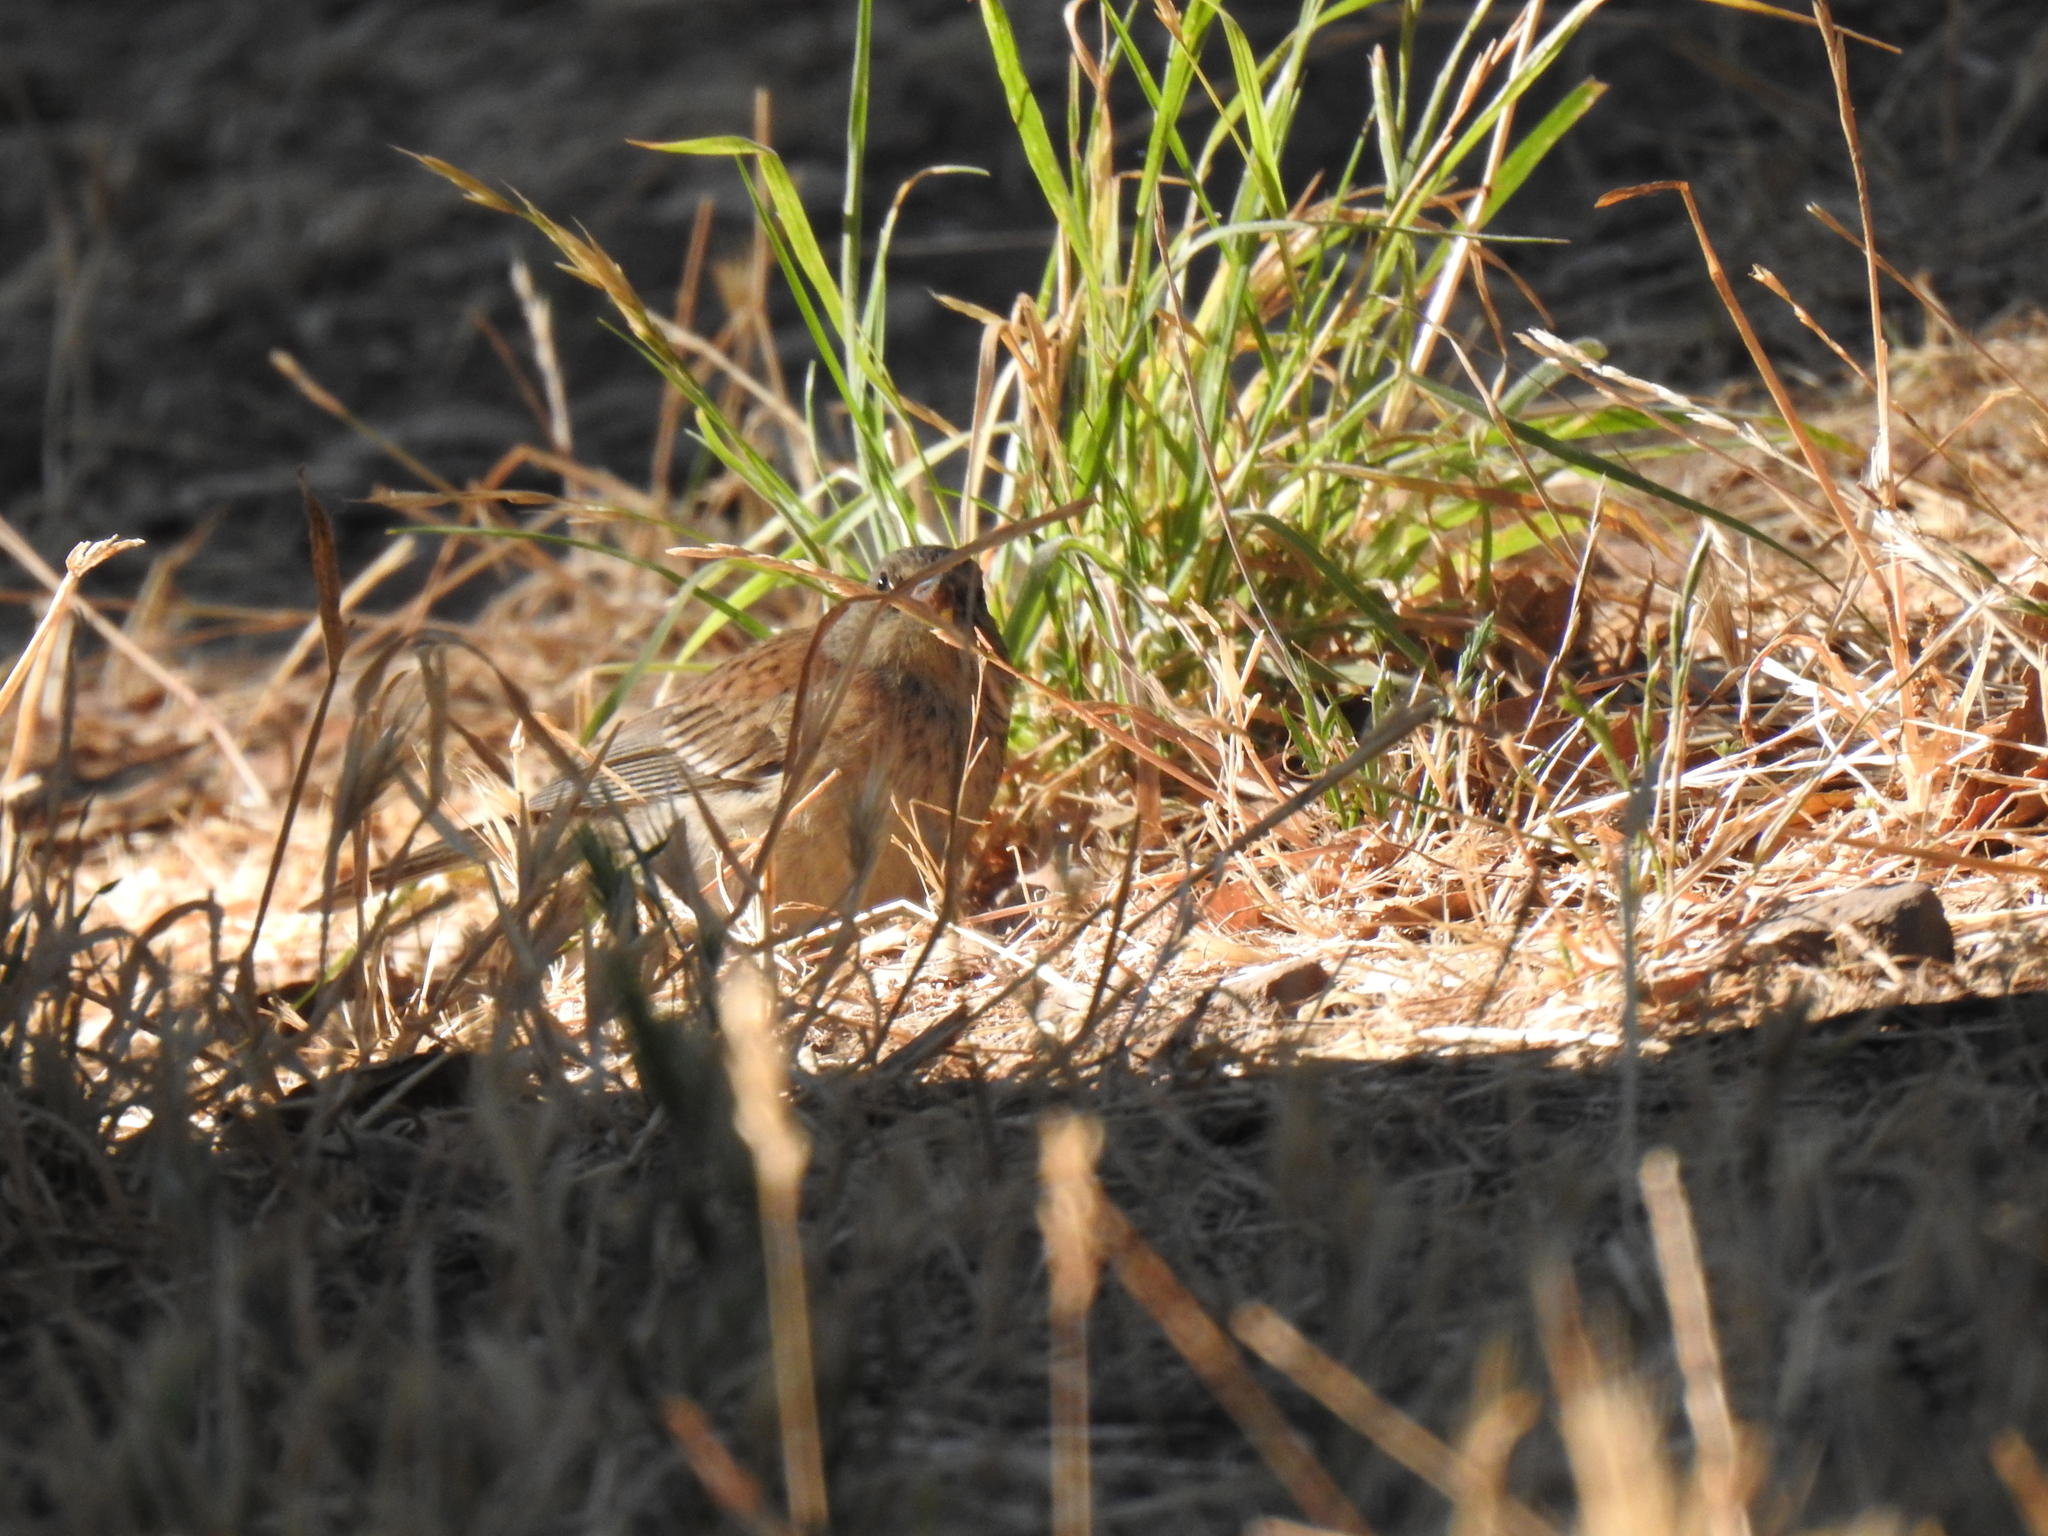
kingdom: Animalia
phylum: Chordata
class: Aves
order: Passeriformes
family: Passerellidae
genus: Junco
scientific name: Junco hyemalis
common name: Dark-eyed junco
